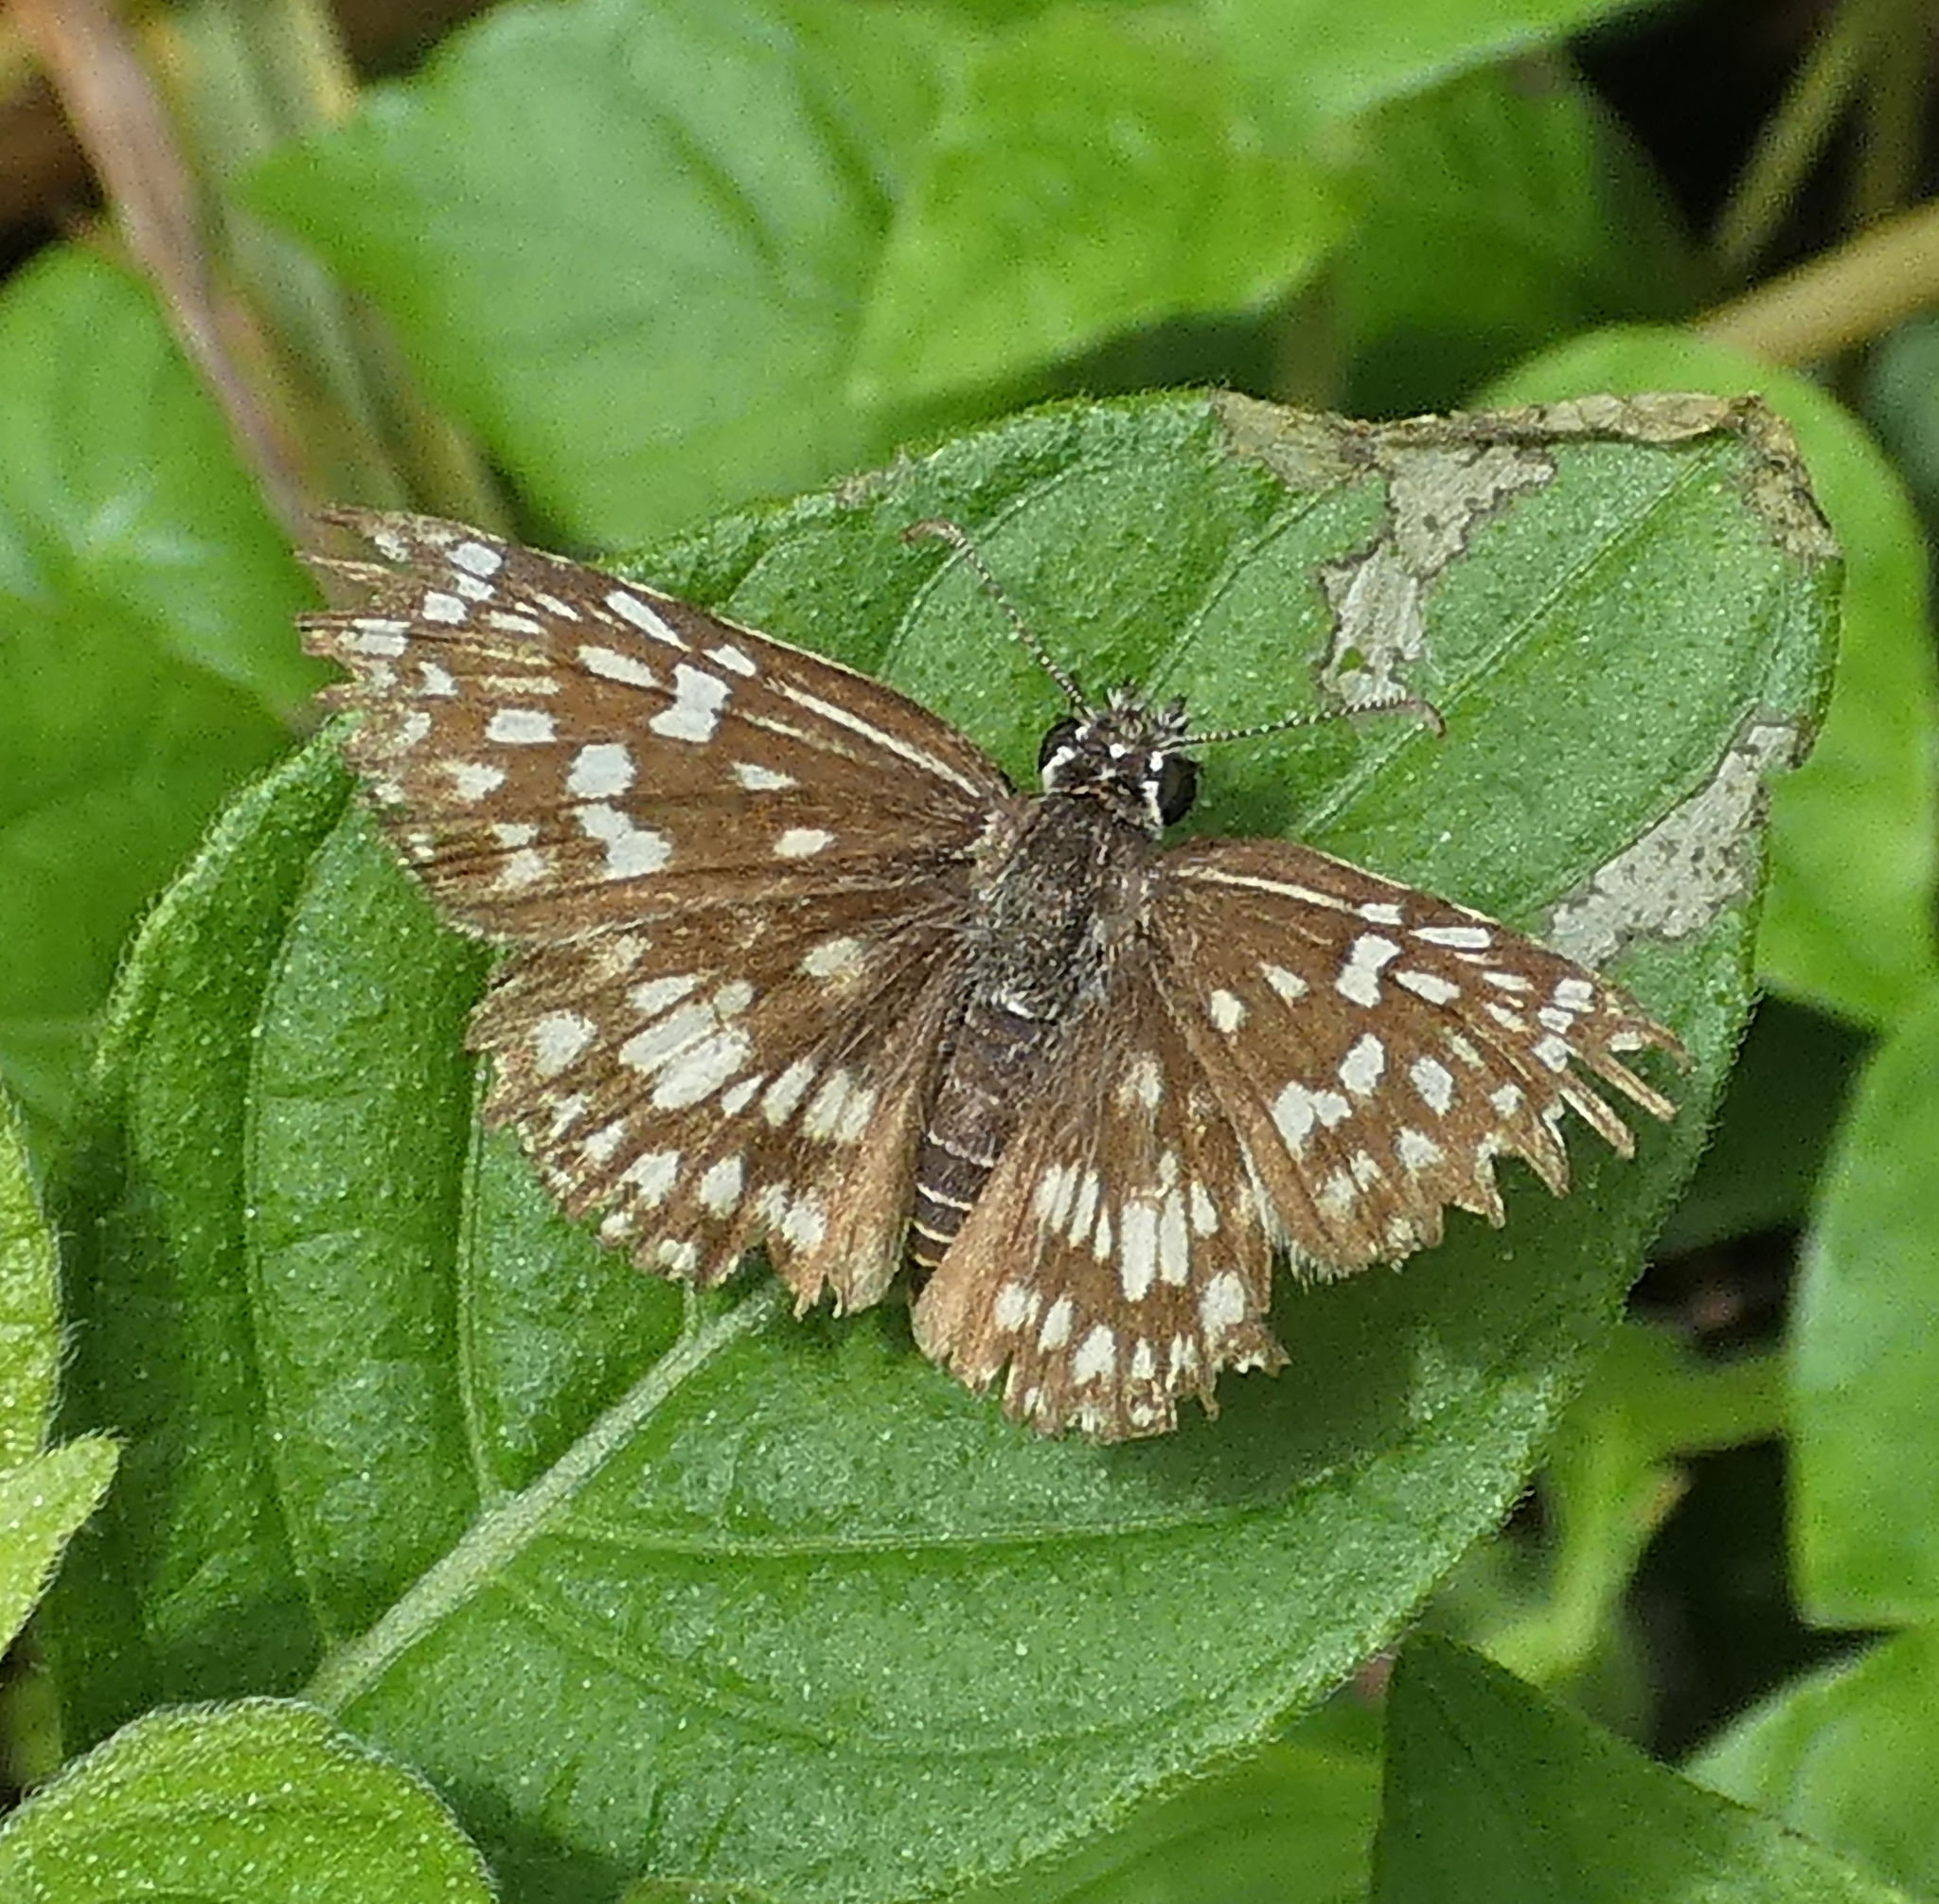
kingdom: Animalia
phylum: Arthropoda
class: Insecta
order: Lepidoptera
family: Hesperiidae
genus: Pyrgus
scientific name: Pyrgus oileus
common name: Tropical checkered-skipper
